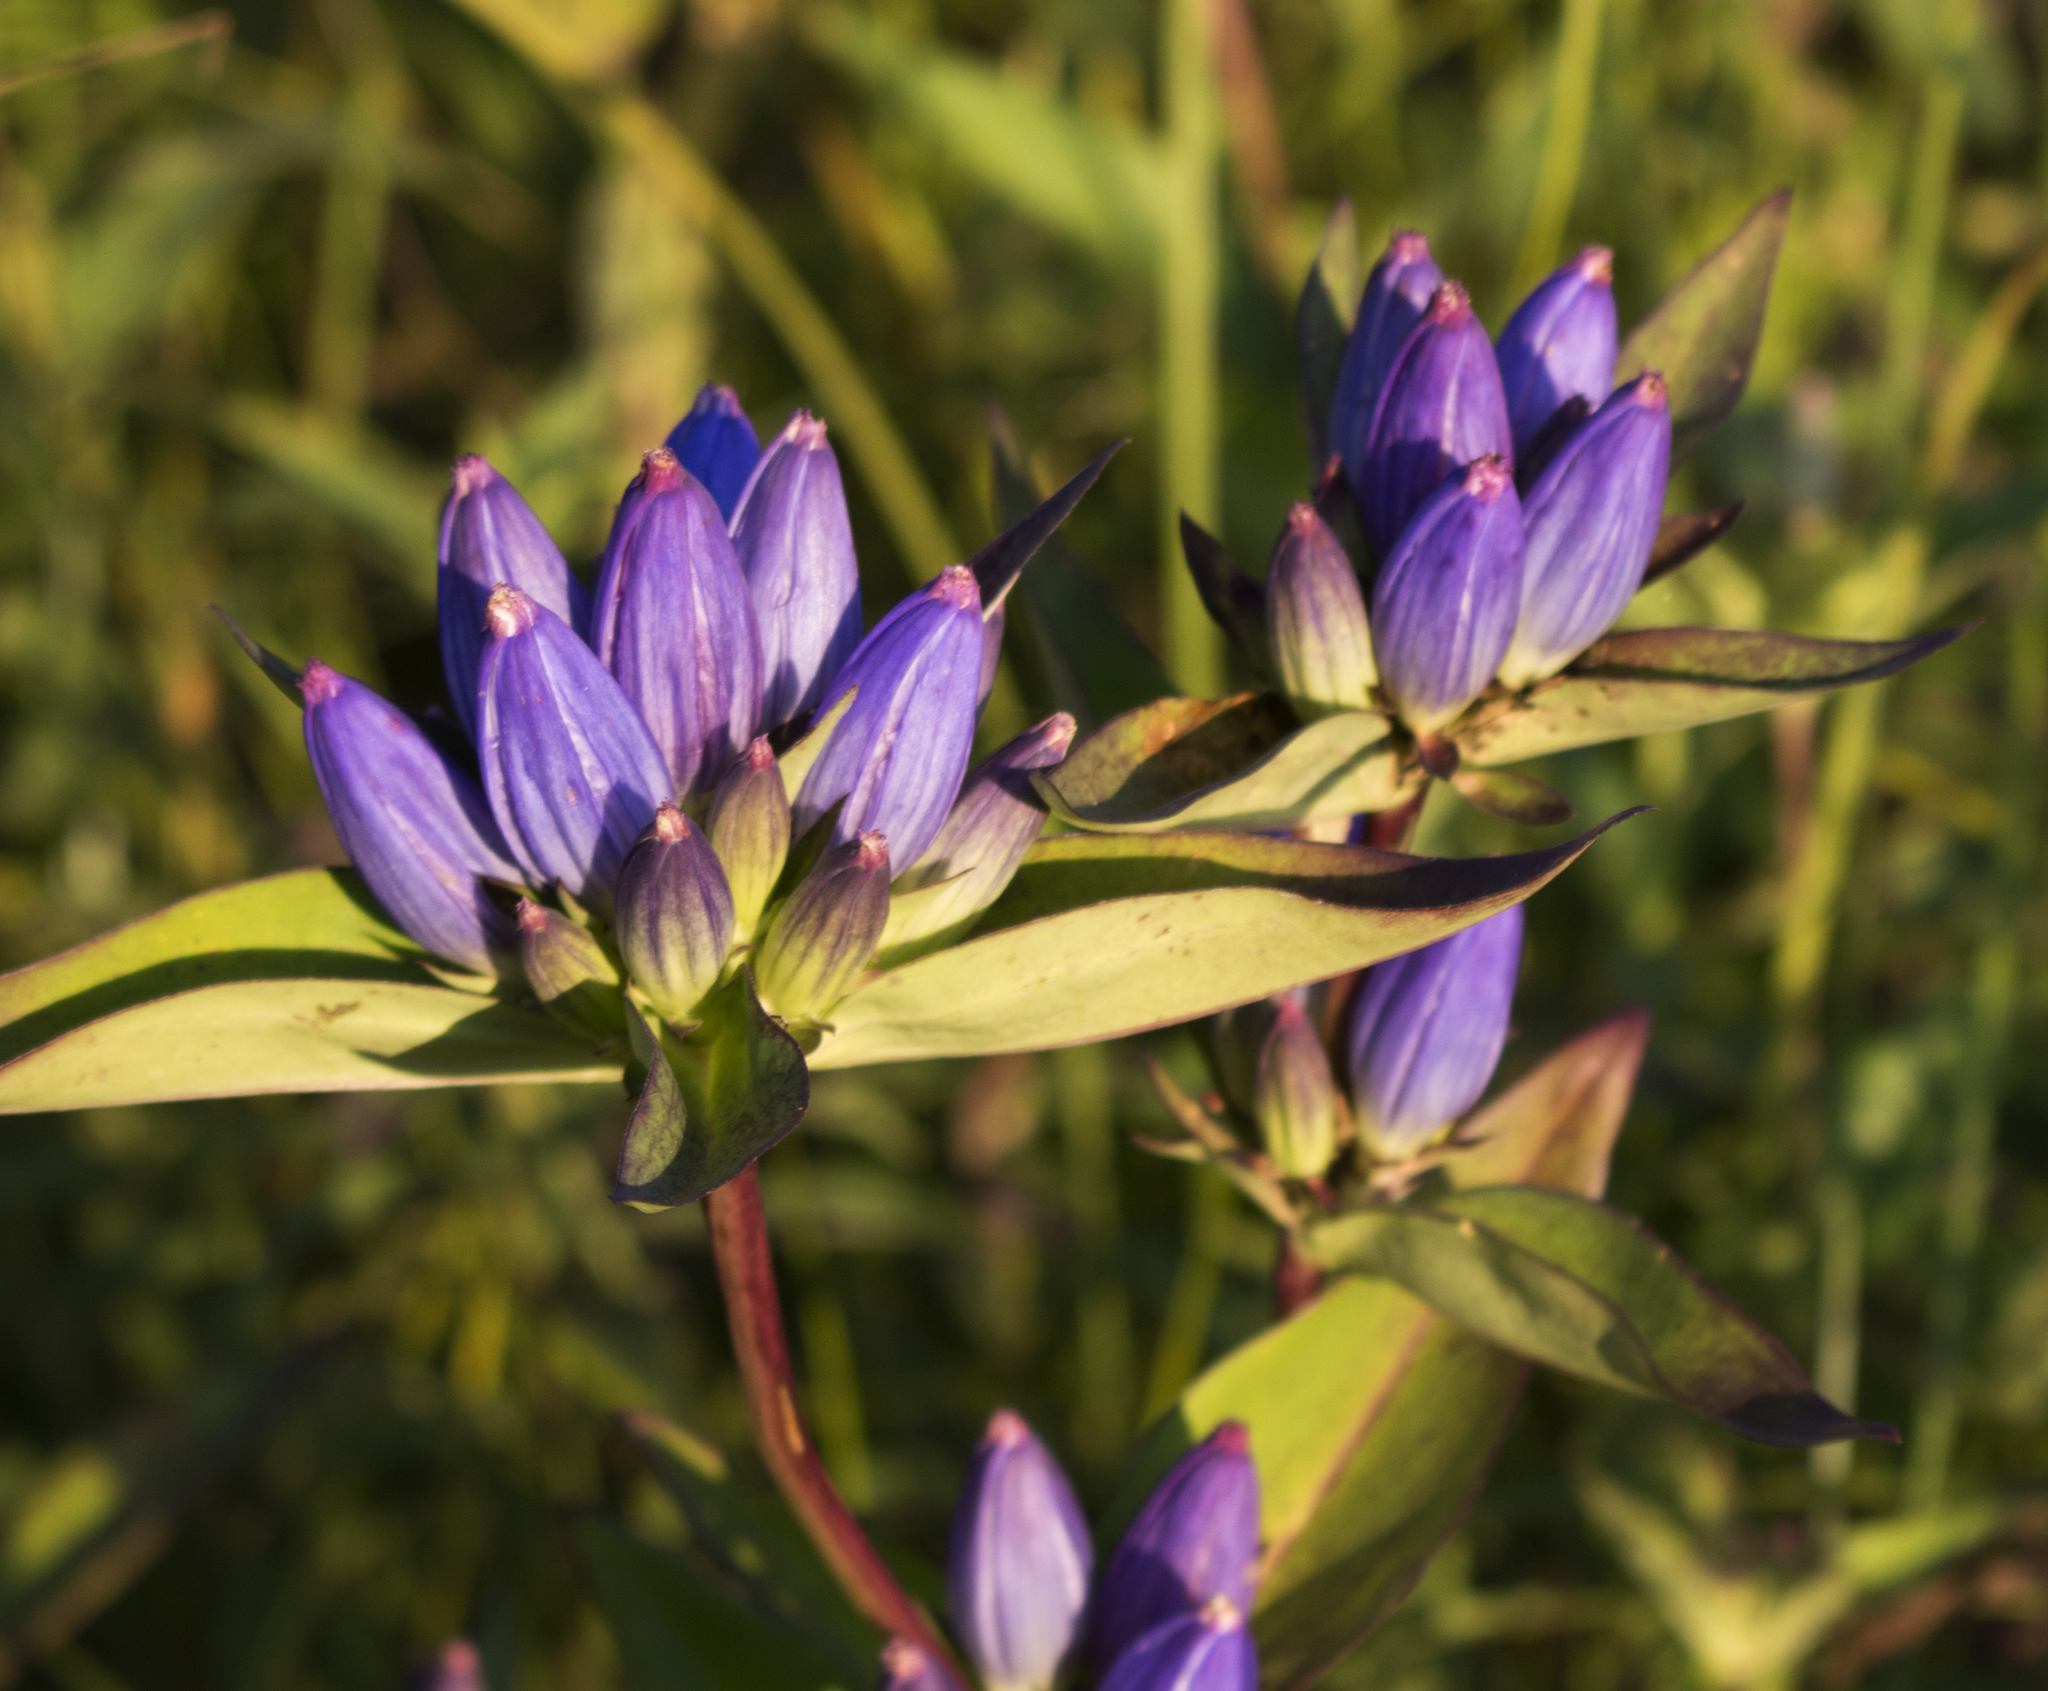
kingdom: Plantae
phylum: Tracheophyta
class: Magnoliopsida
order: Gentianales
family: Gentianaceae
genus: Gentiana
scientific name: Gentiana andrewsii
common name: Bottle gentian
